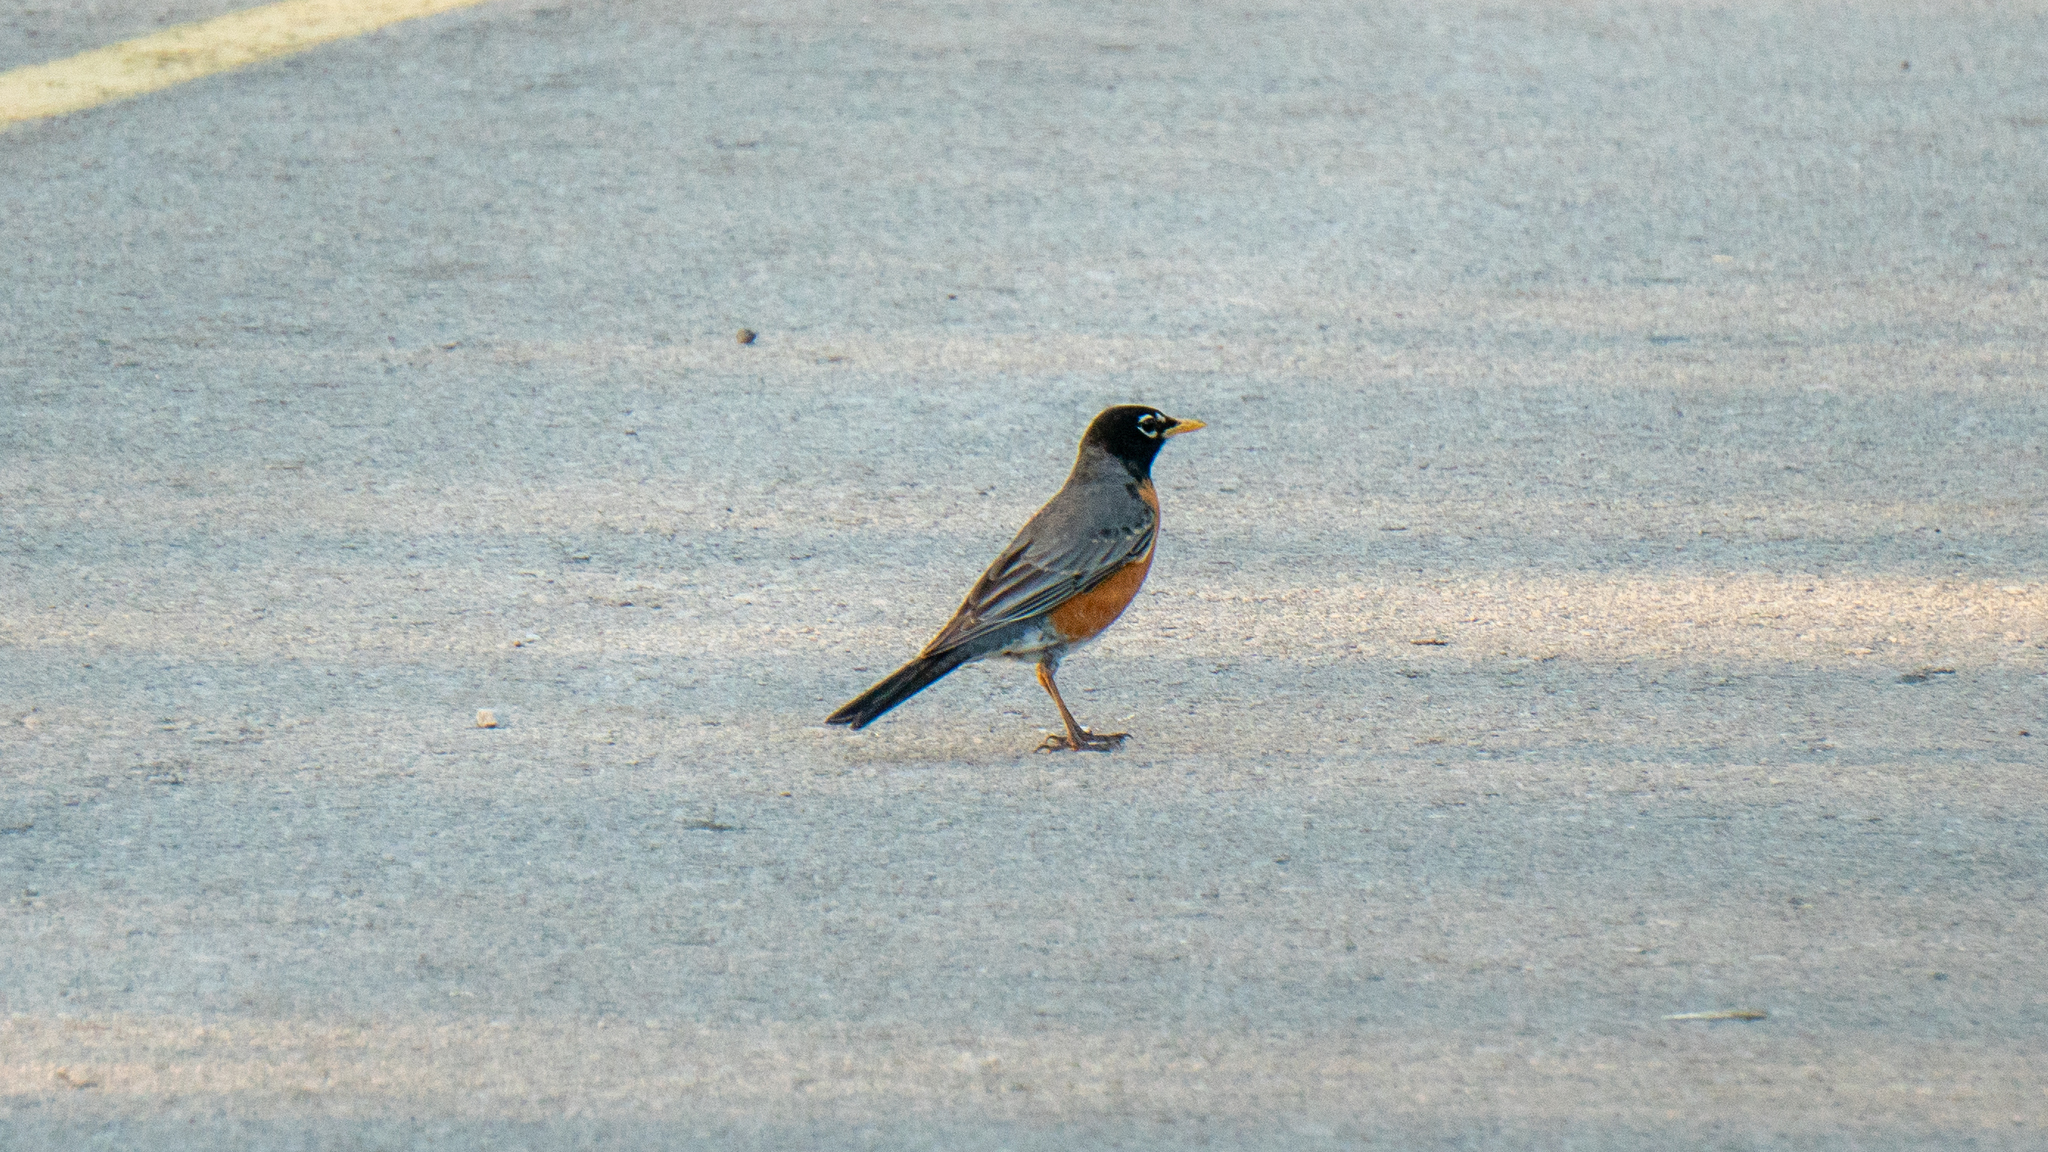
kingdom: Animalia
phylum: Chordata
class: Aves
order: Passeriformes
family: Turdidae
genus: Turdus
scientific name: Turdus migratorius
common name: American robin
